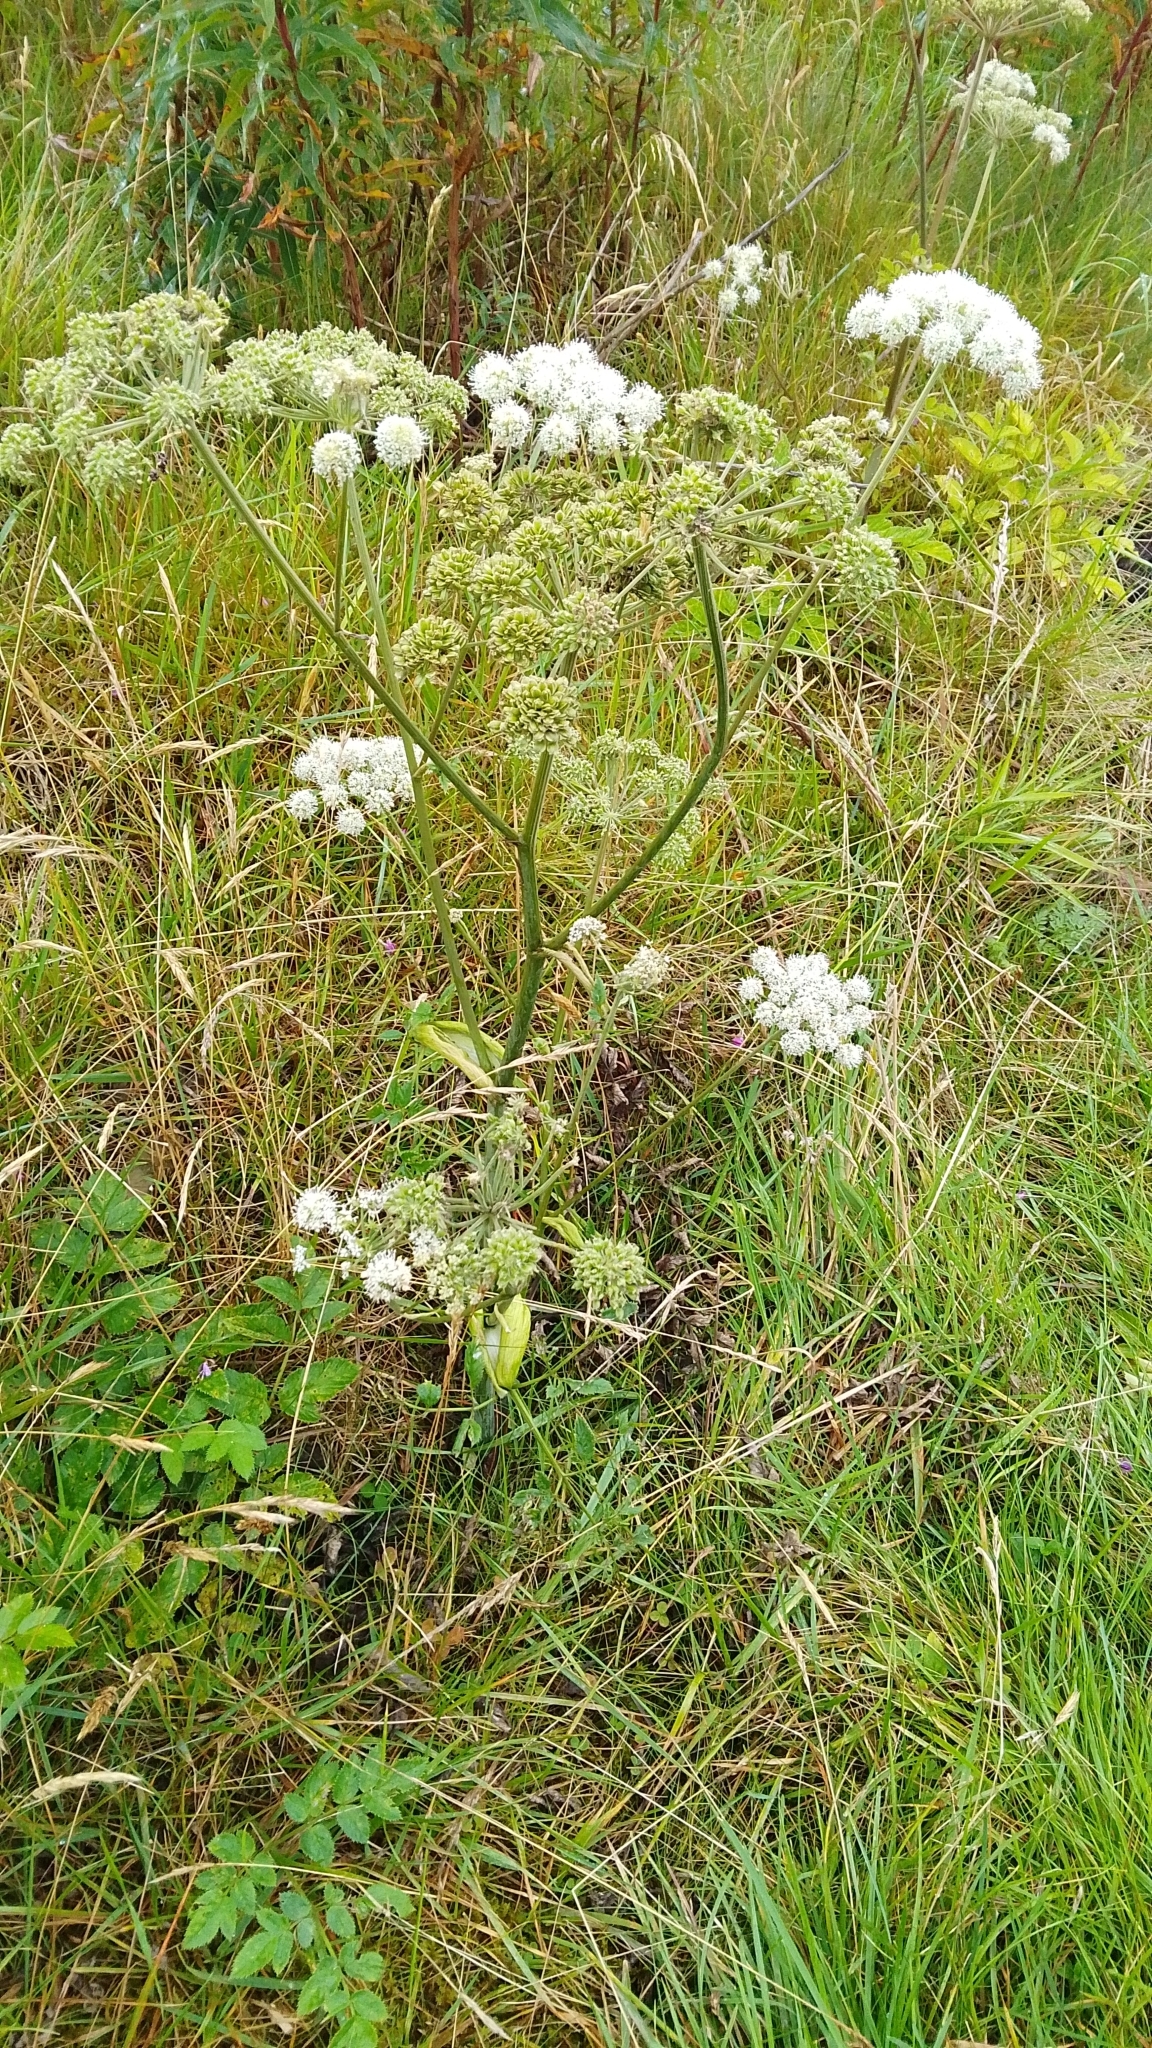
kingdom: Plantae
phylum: Tracheophyta
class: Magnoliopsida
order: Apiales
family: Apiaceae
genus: Angelica
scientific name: Angelica sylvestris
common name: Wild angelica
